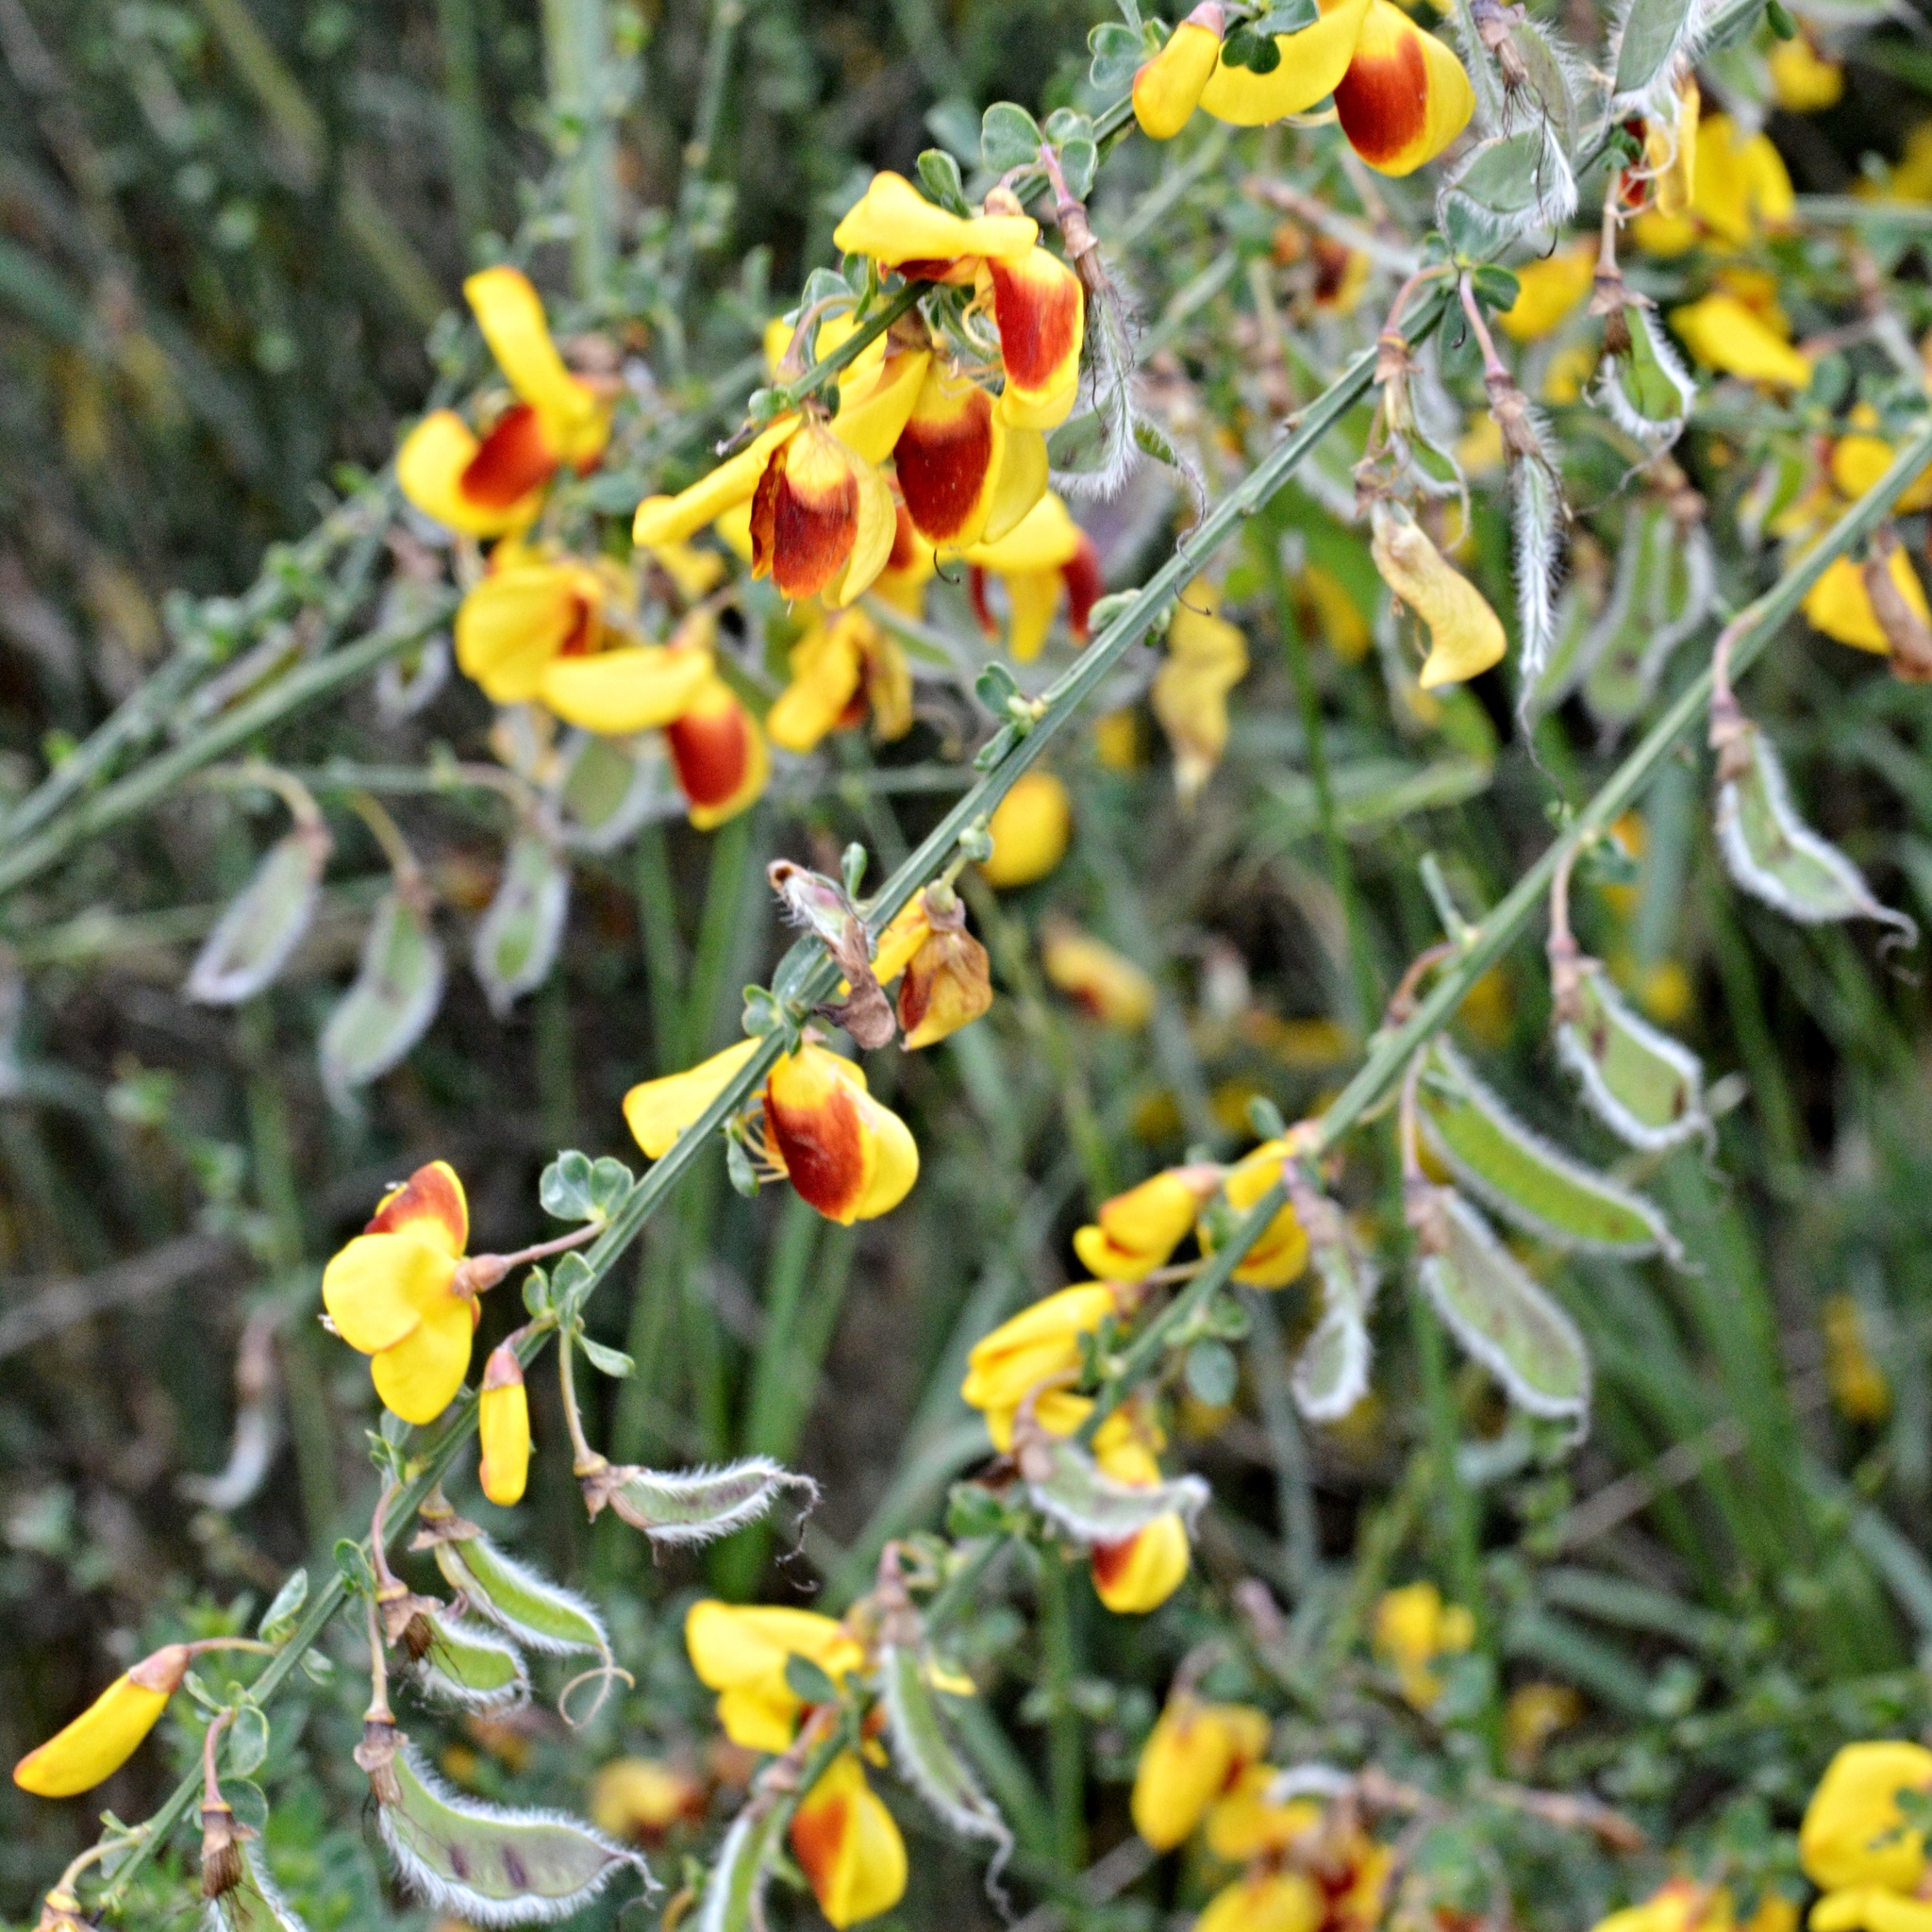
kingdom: Plantae
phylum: Tracheophyta
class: Magnoliopsida
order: Fabales
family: Fabaceae
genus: Cytisus
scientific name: Cytisus scoparius
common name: Scotch broom
